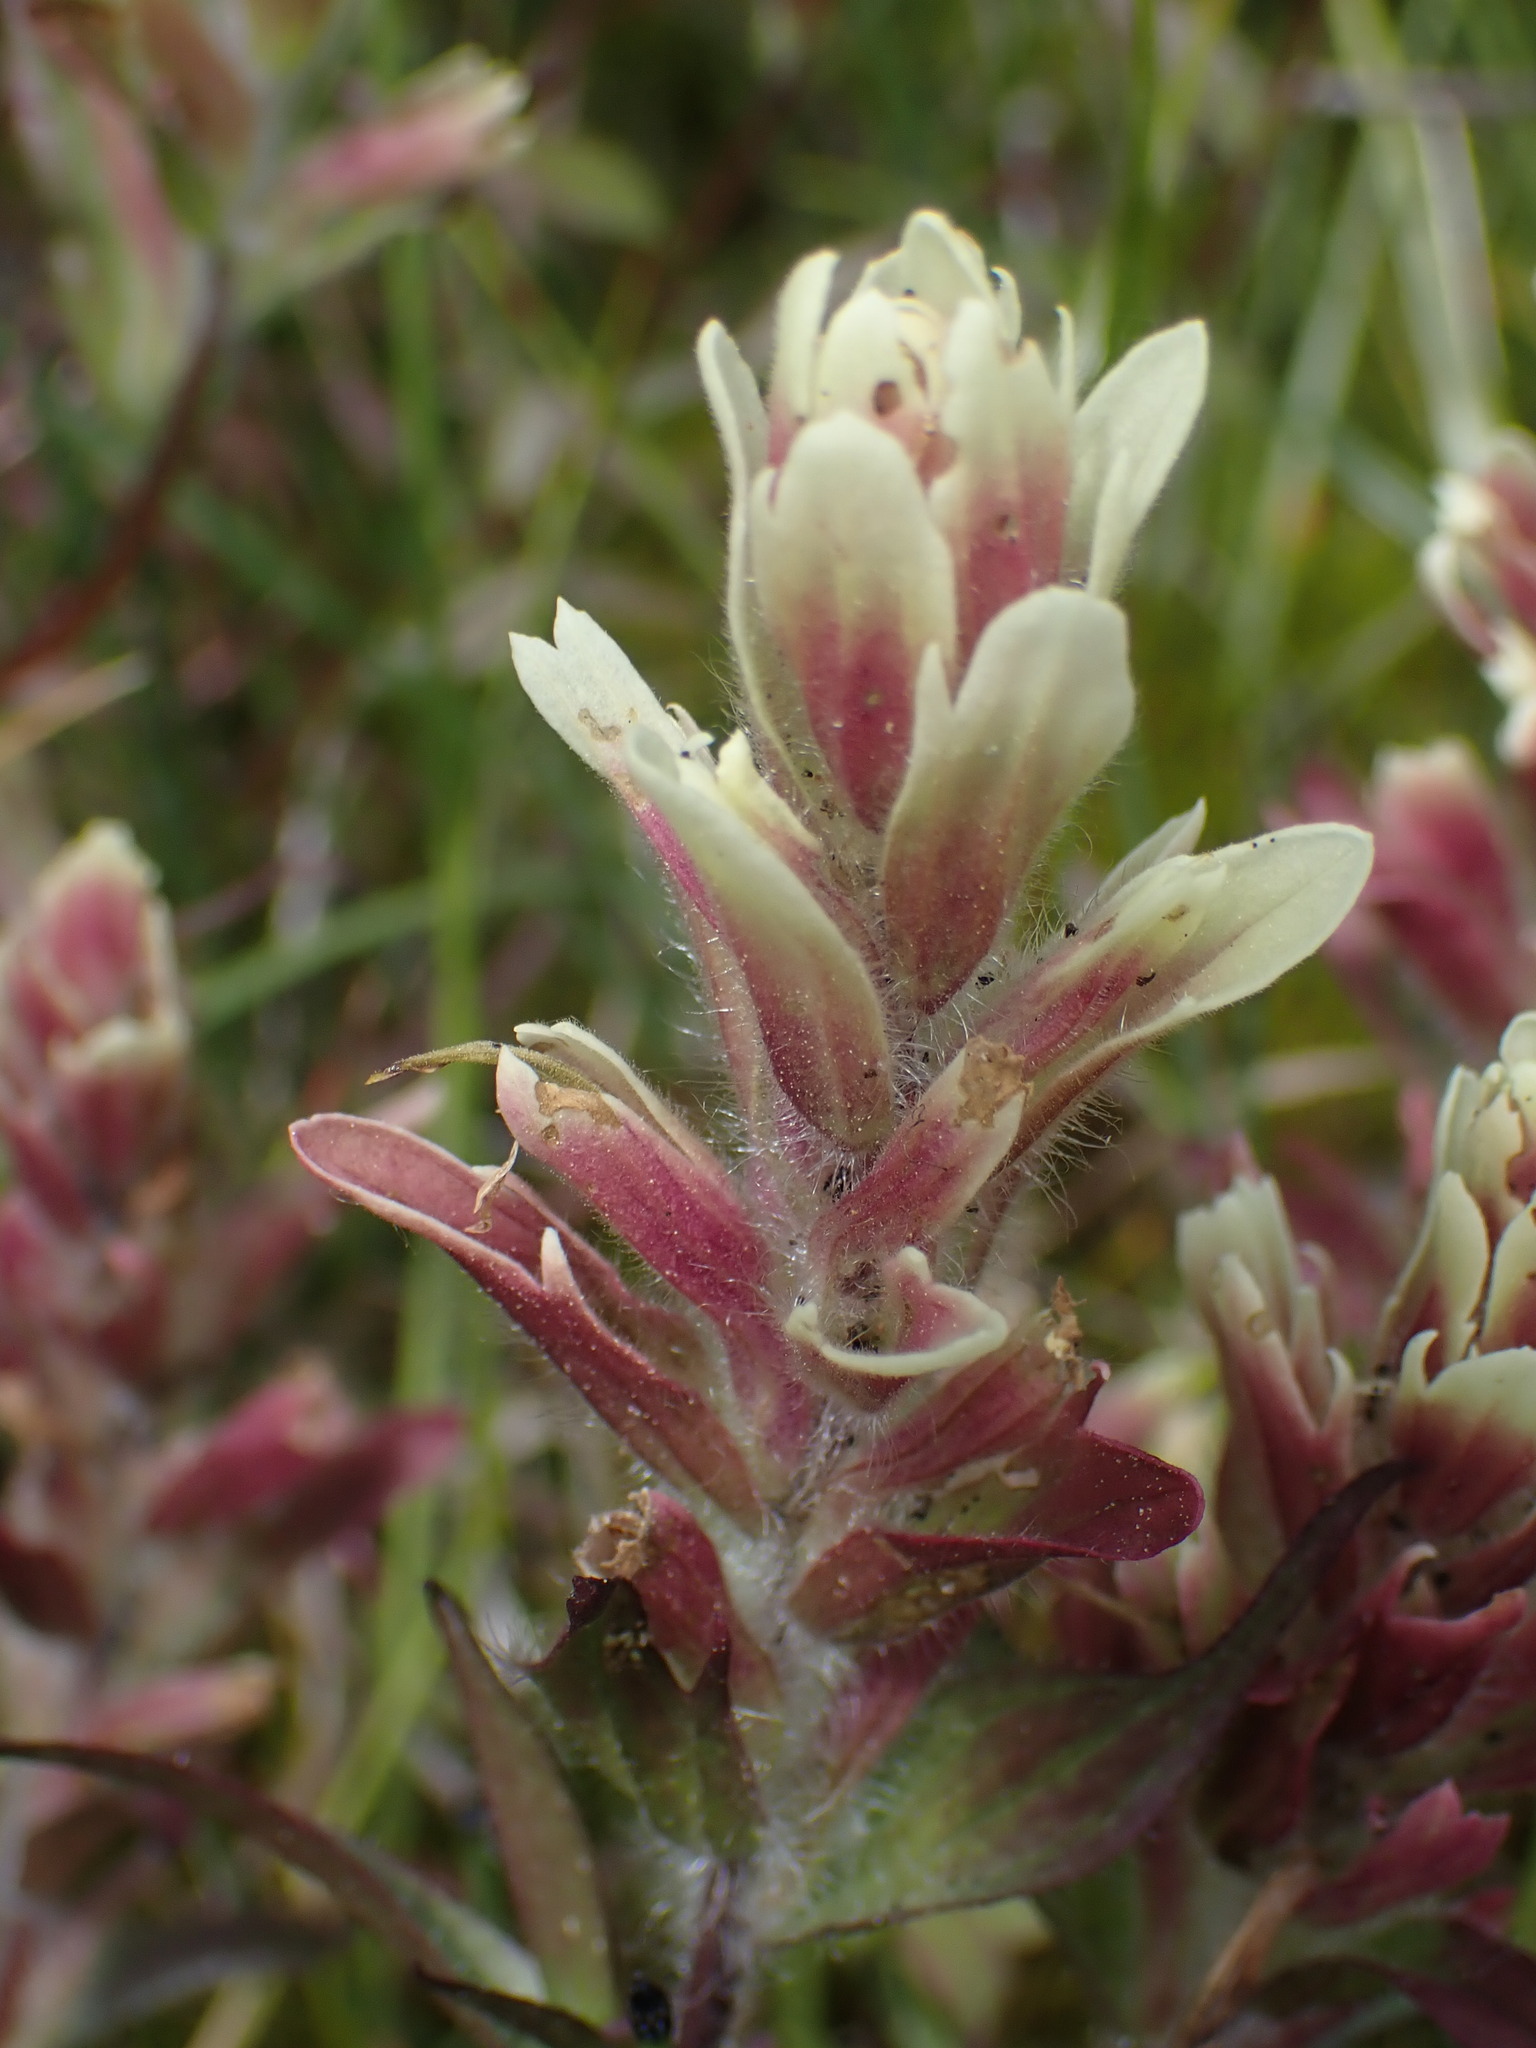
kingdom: Plantae
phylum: Tracheophyta
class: Magnoliopsida
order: Lamiales
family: Orobanchaceae
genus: Castilleja
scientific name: Castilleja parviflora
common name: Mountain paintbrush
